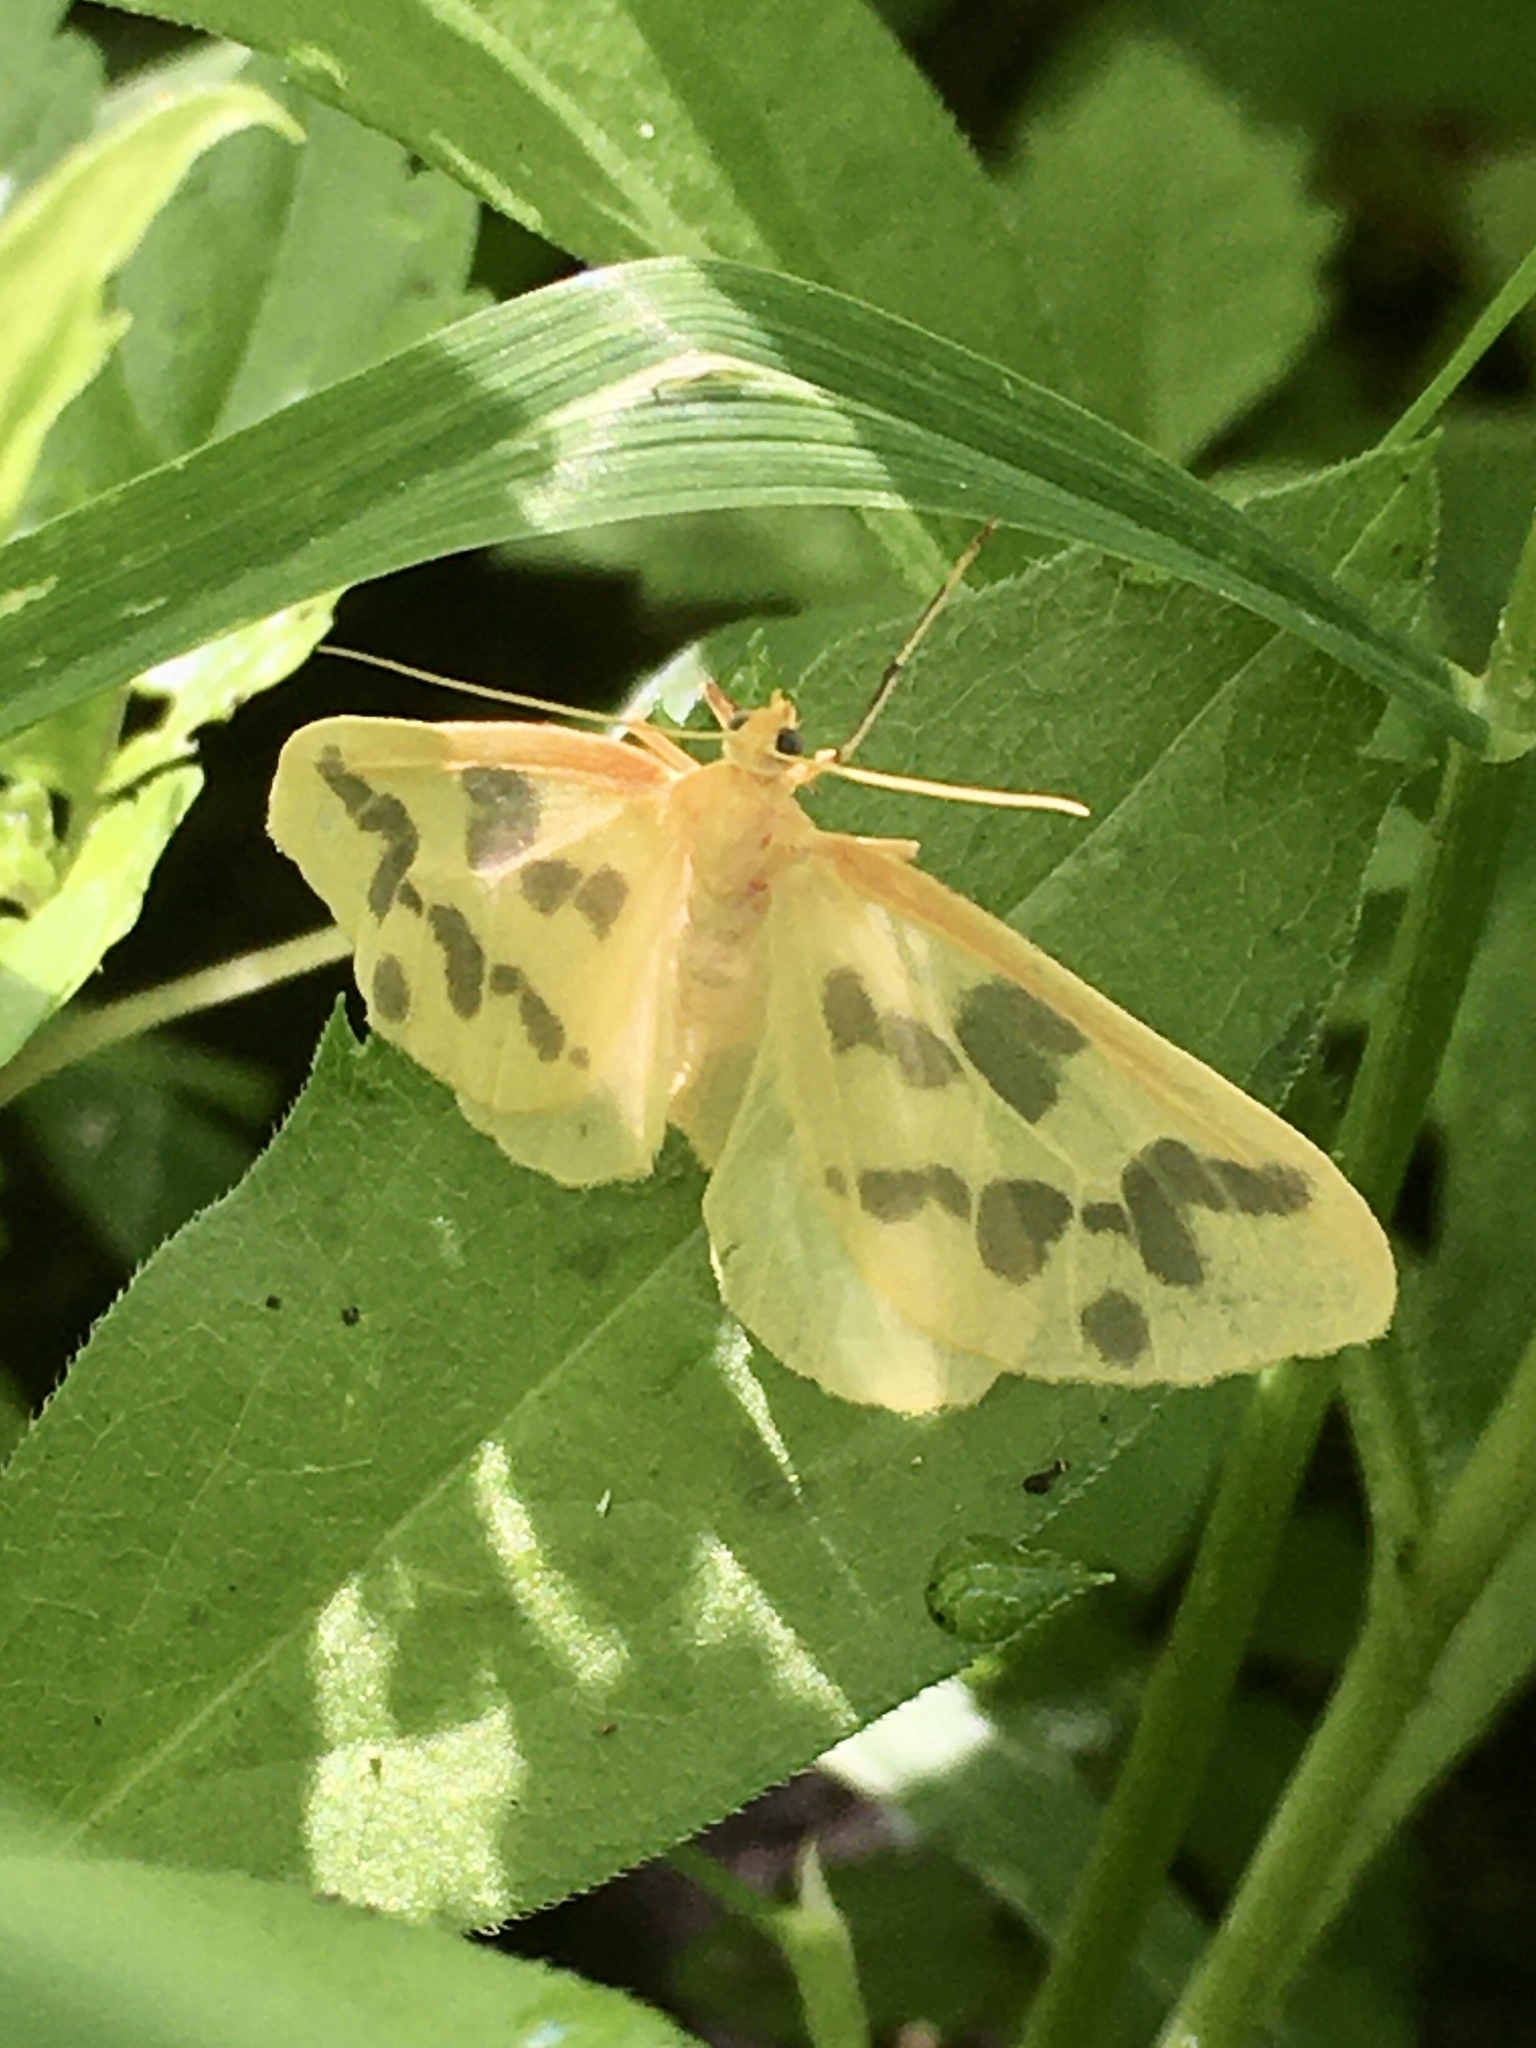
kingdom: Animalia
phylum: Arthropoda
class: Insecta
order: Lepidoptera
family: Geometridae
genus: Eubaphe
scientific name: Eubaphe mendica
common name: Beggar
